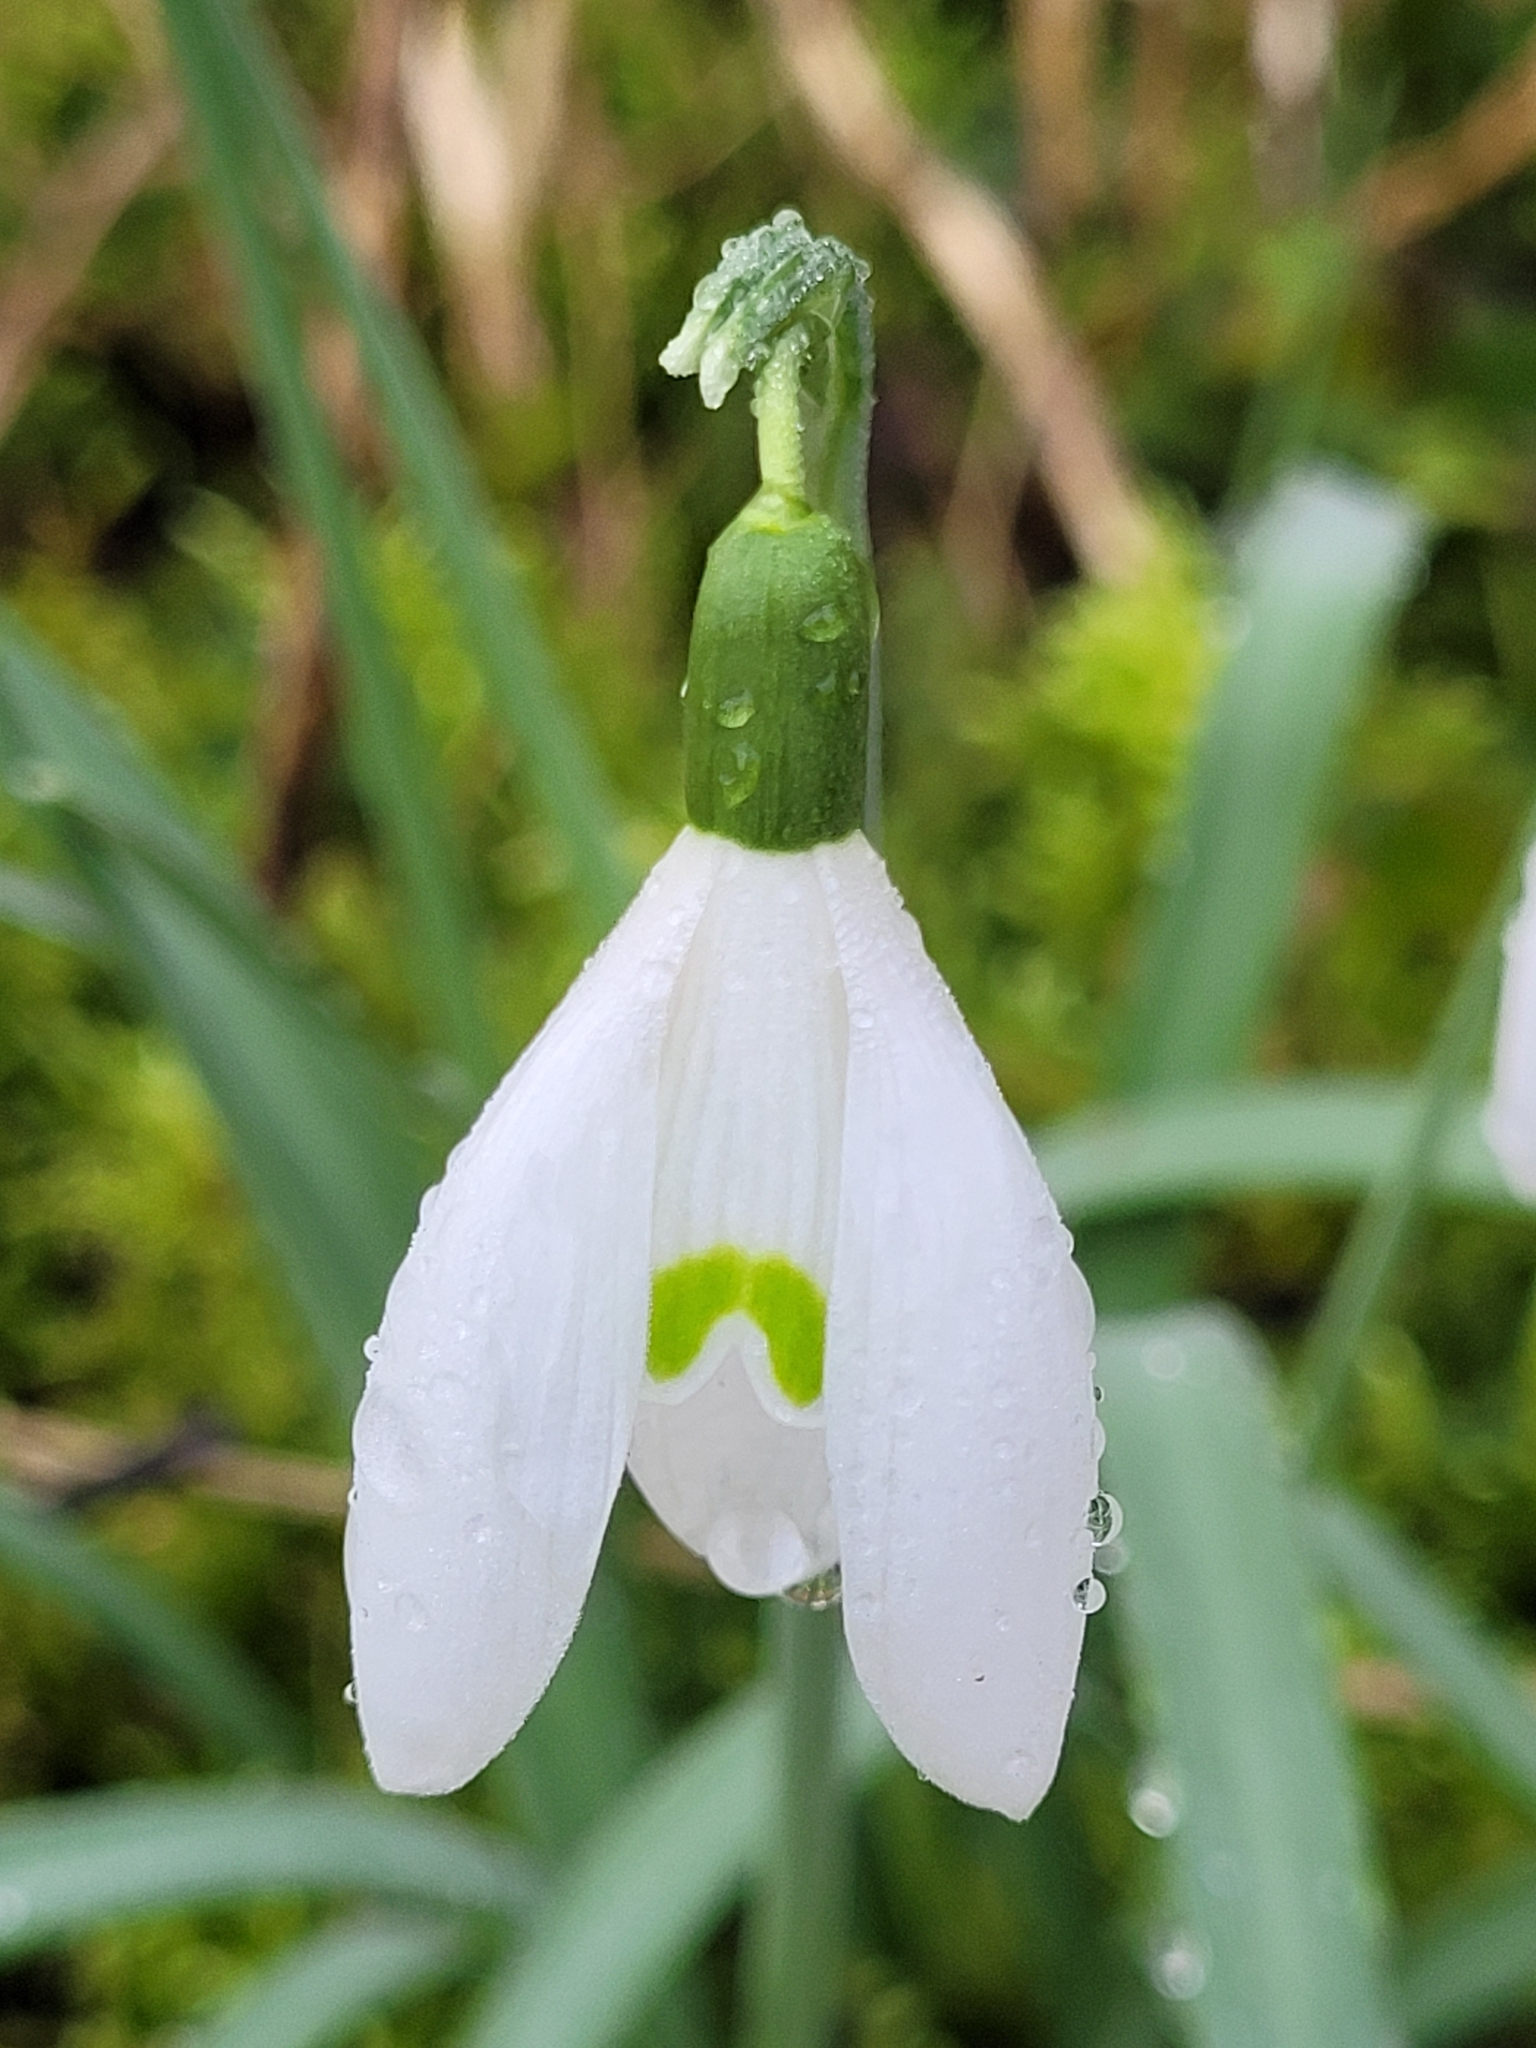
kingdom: Plantae
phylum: Tracheophyta
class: Liliopsida
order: Asparagales
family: Amaryllidaceae
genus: Galanthus
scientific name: Galanthus nivalis
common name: Snowdrop
